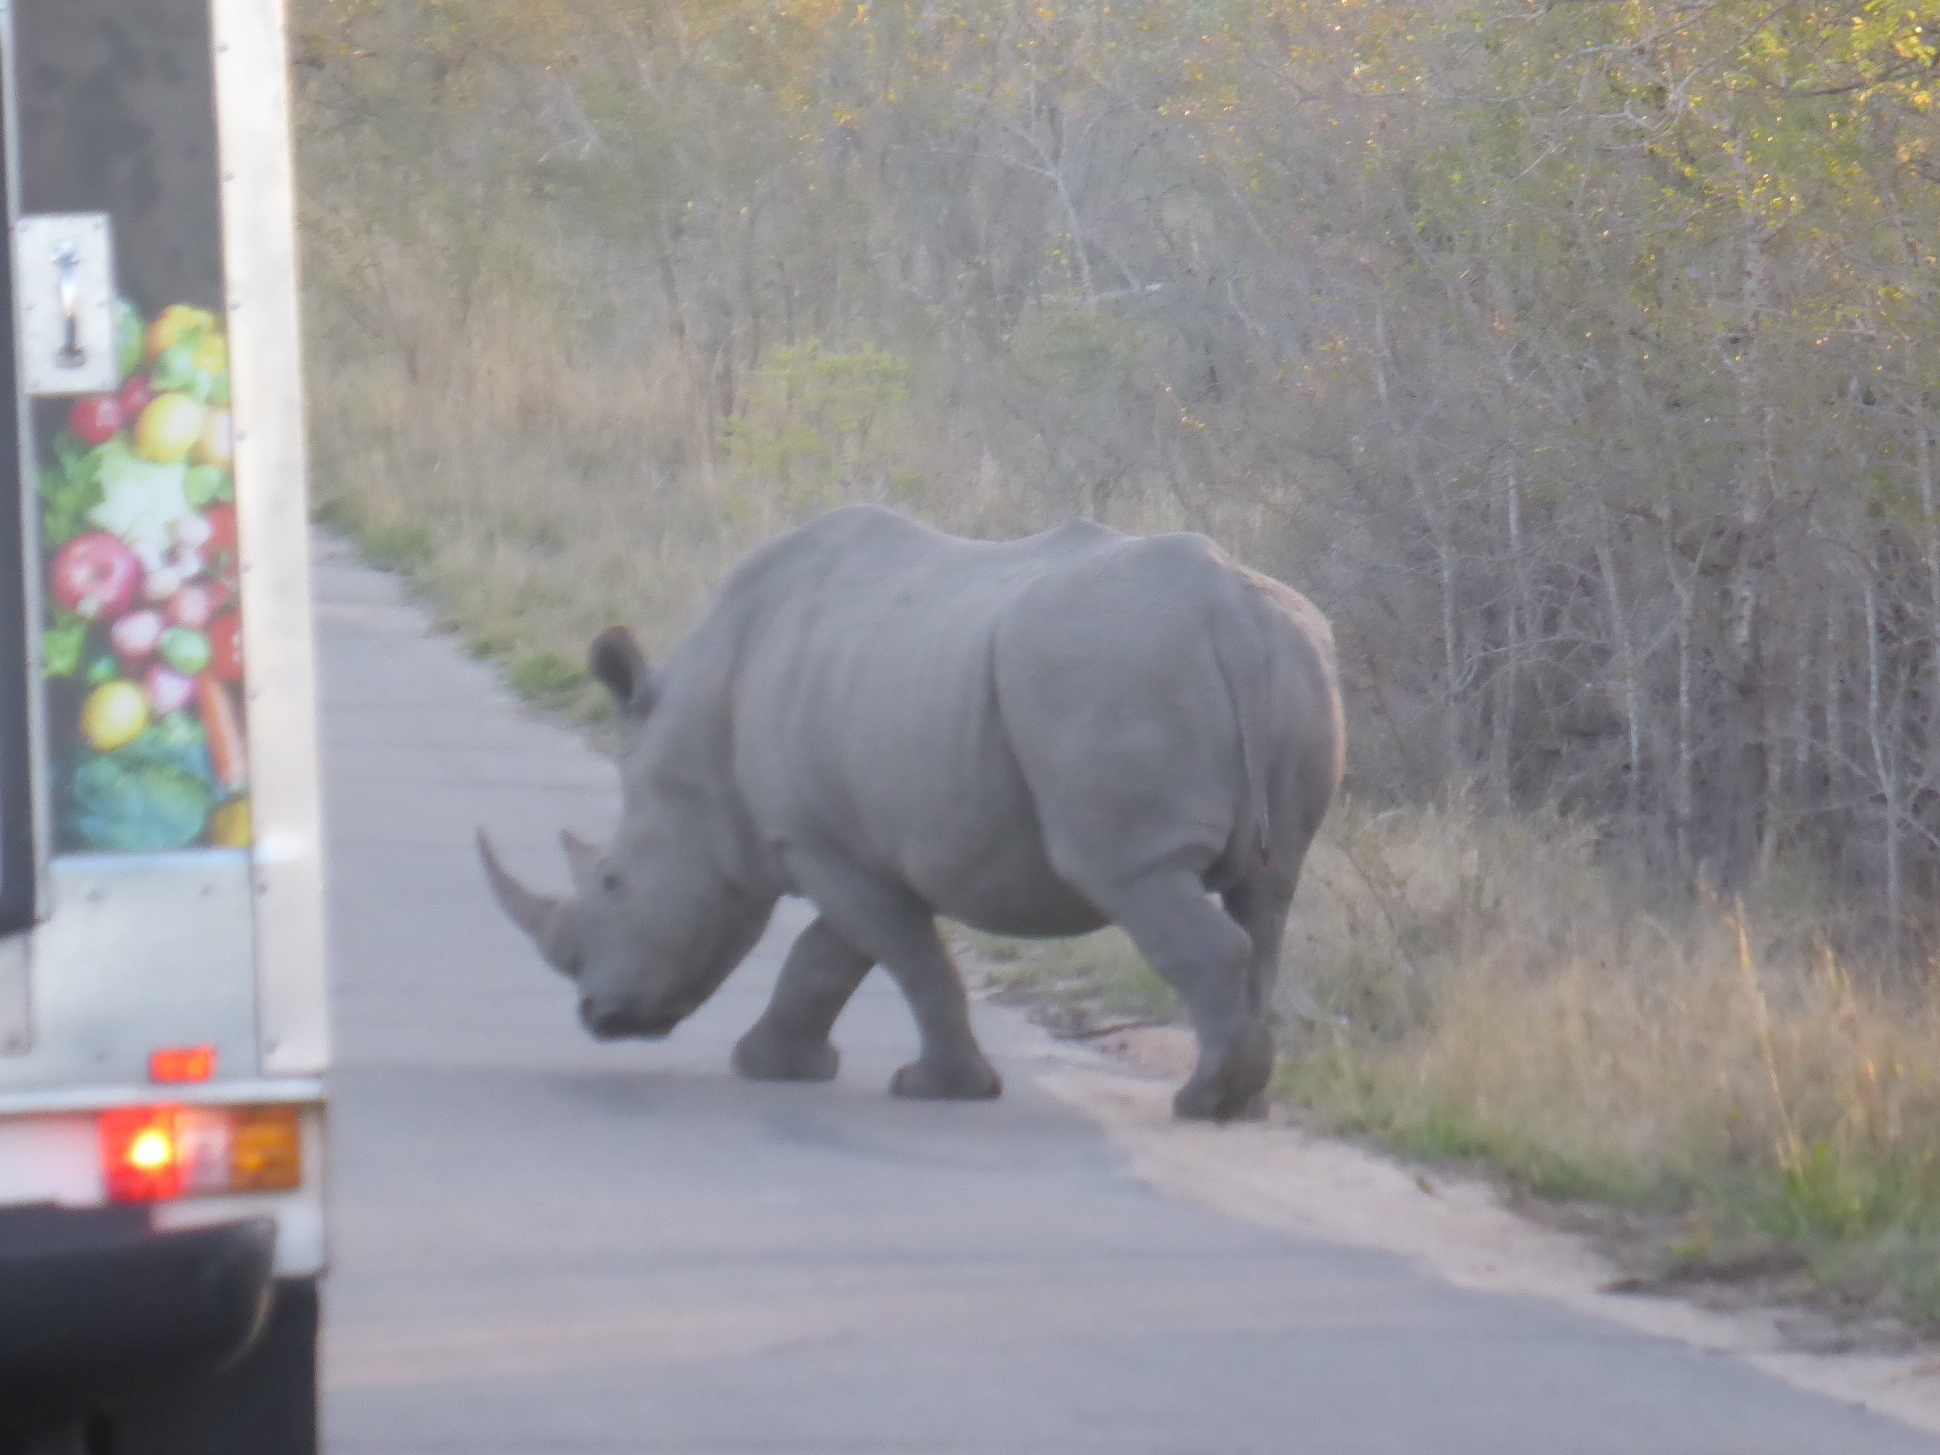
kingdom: Animalia
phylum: Chordata
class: Mammalia
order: Perissodactyla
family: Rhinocerotidae
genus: Ceratotherium
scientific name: Ceratotherium simum
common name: White rhinoceros
